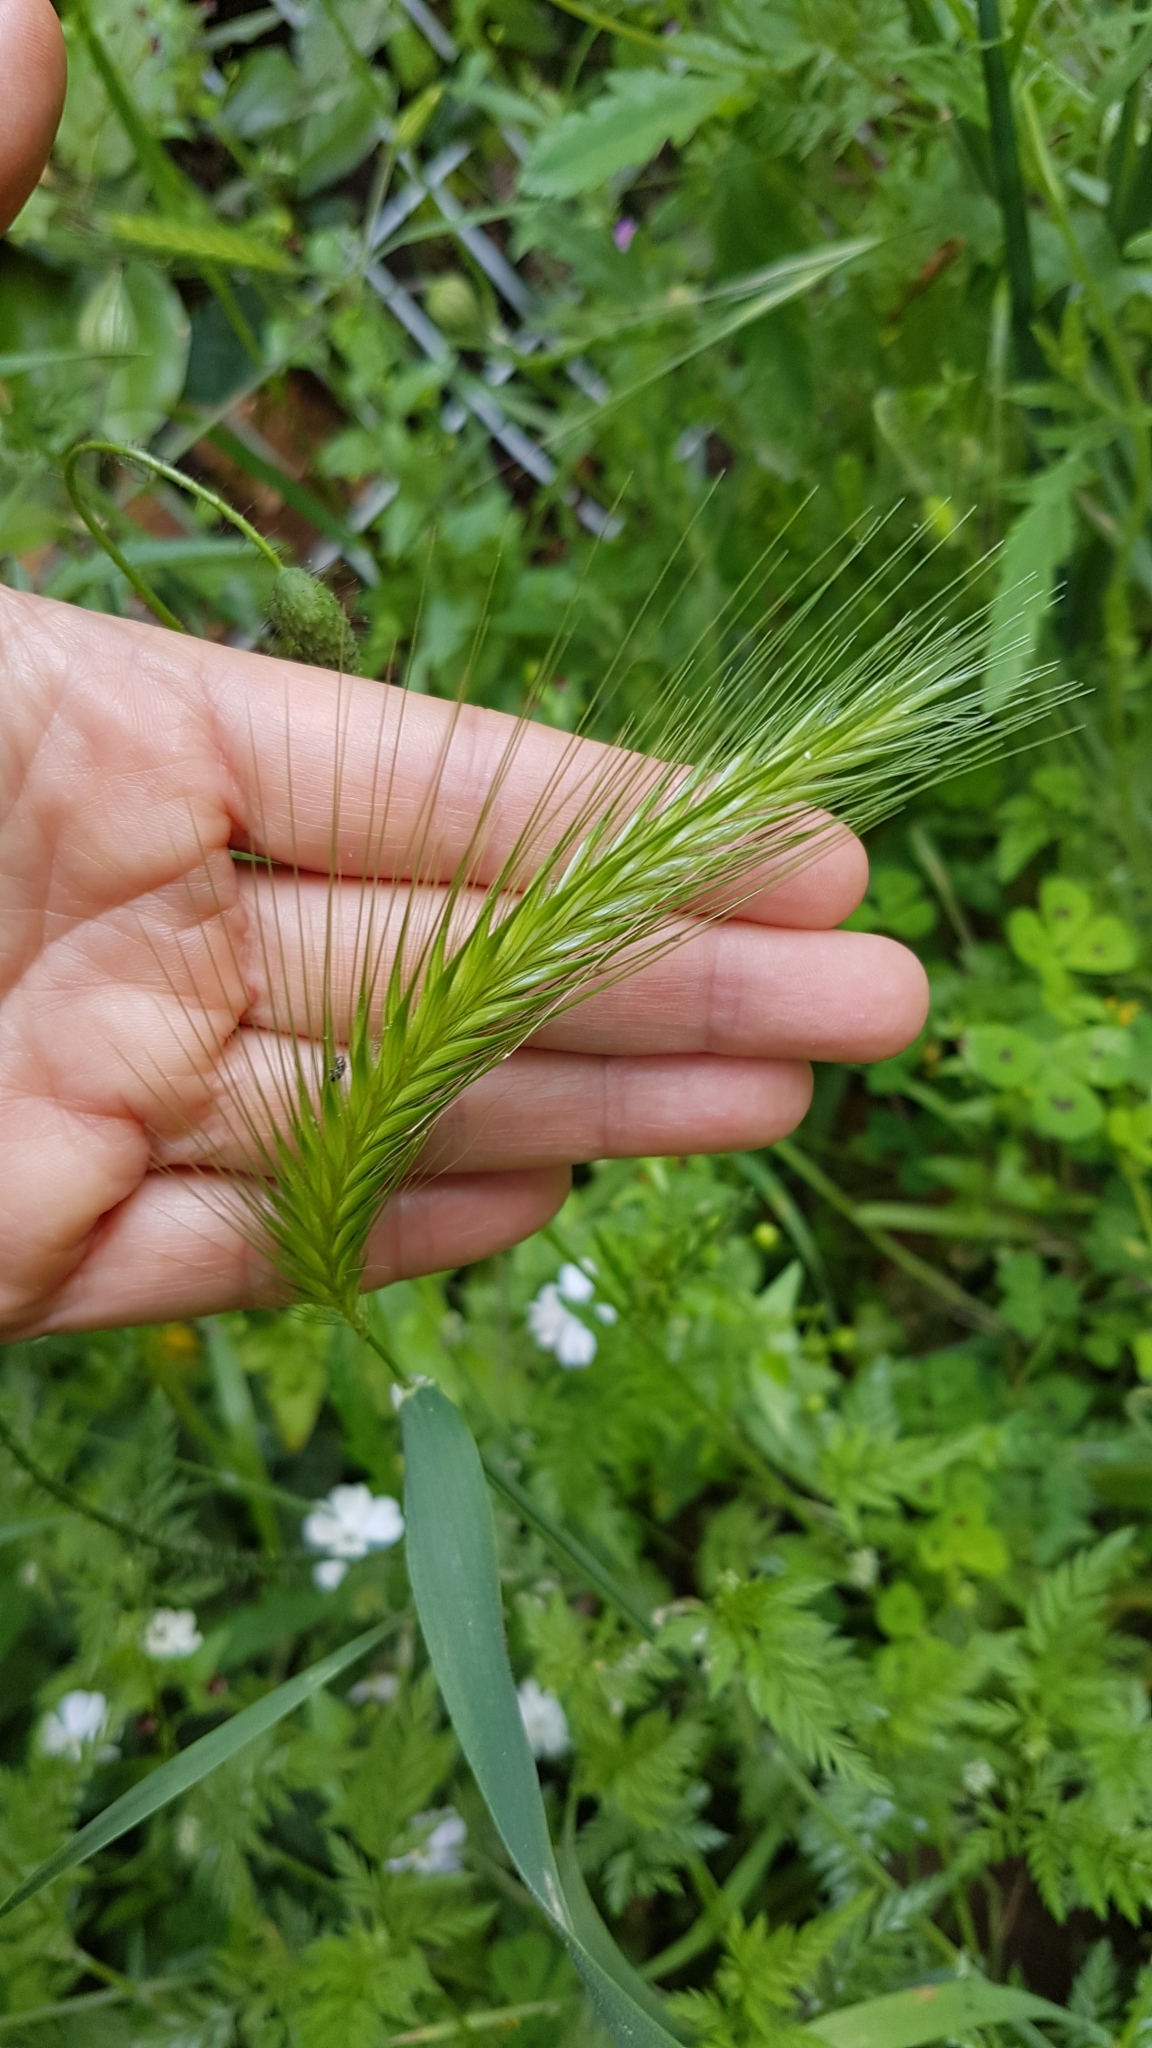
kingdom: Plantae
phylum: Tracheophyta
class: Liliopsida
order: Poales
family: Poaceae
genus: Hordeum
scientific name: Hordeum murinum
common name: Wall barley
